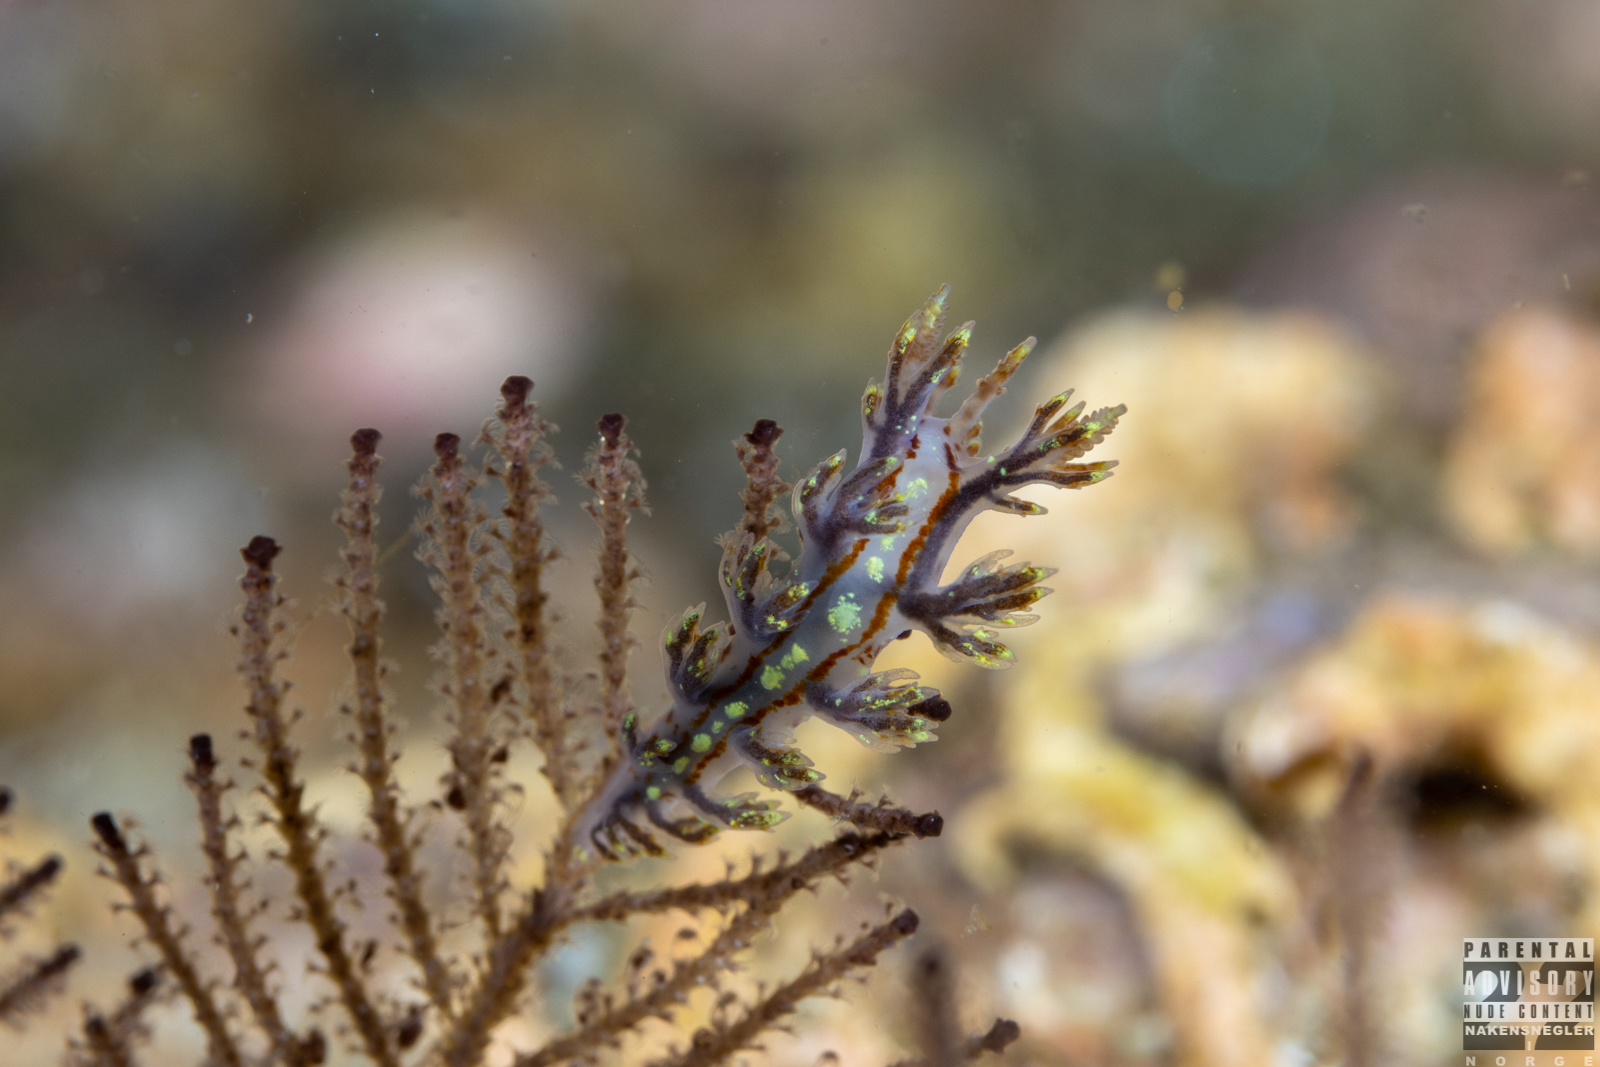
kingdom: Animalia
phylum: Mollusca
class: Gastropoda
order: Nudibranchia
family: Dendronotidae
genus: Dendronotus
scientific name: Dendronotus yrjargul
